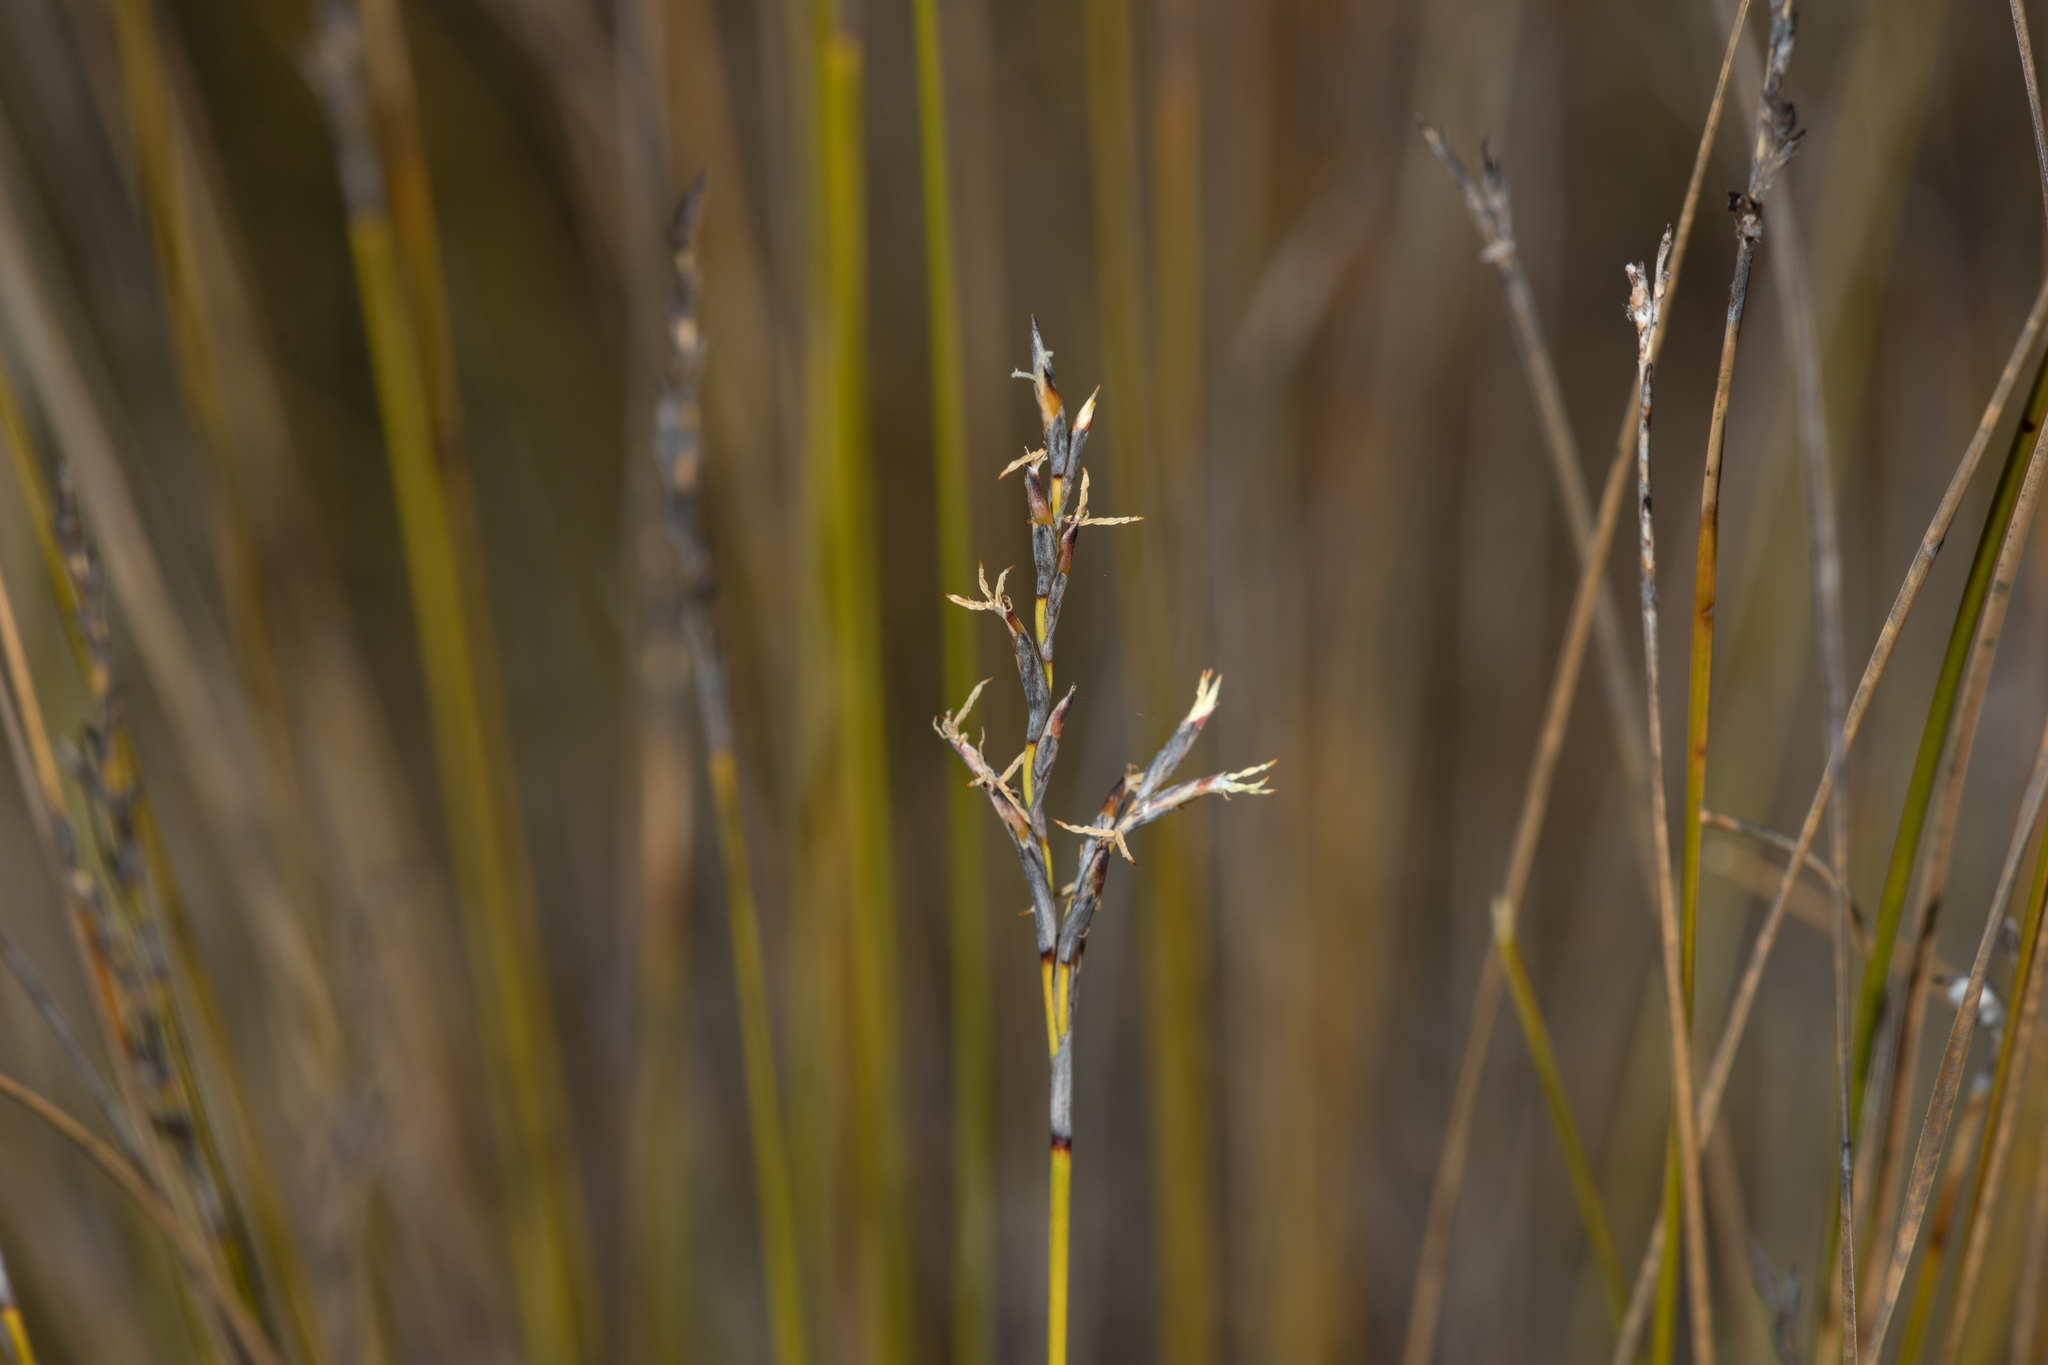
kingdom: Plantae
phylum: Tracheophyta
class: Liliopsida
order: Poales
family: Cyperaceae
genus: Lepidosperma
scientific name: Lepidosperma semiteres
